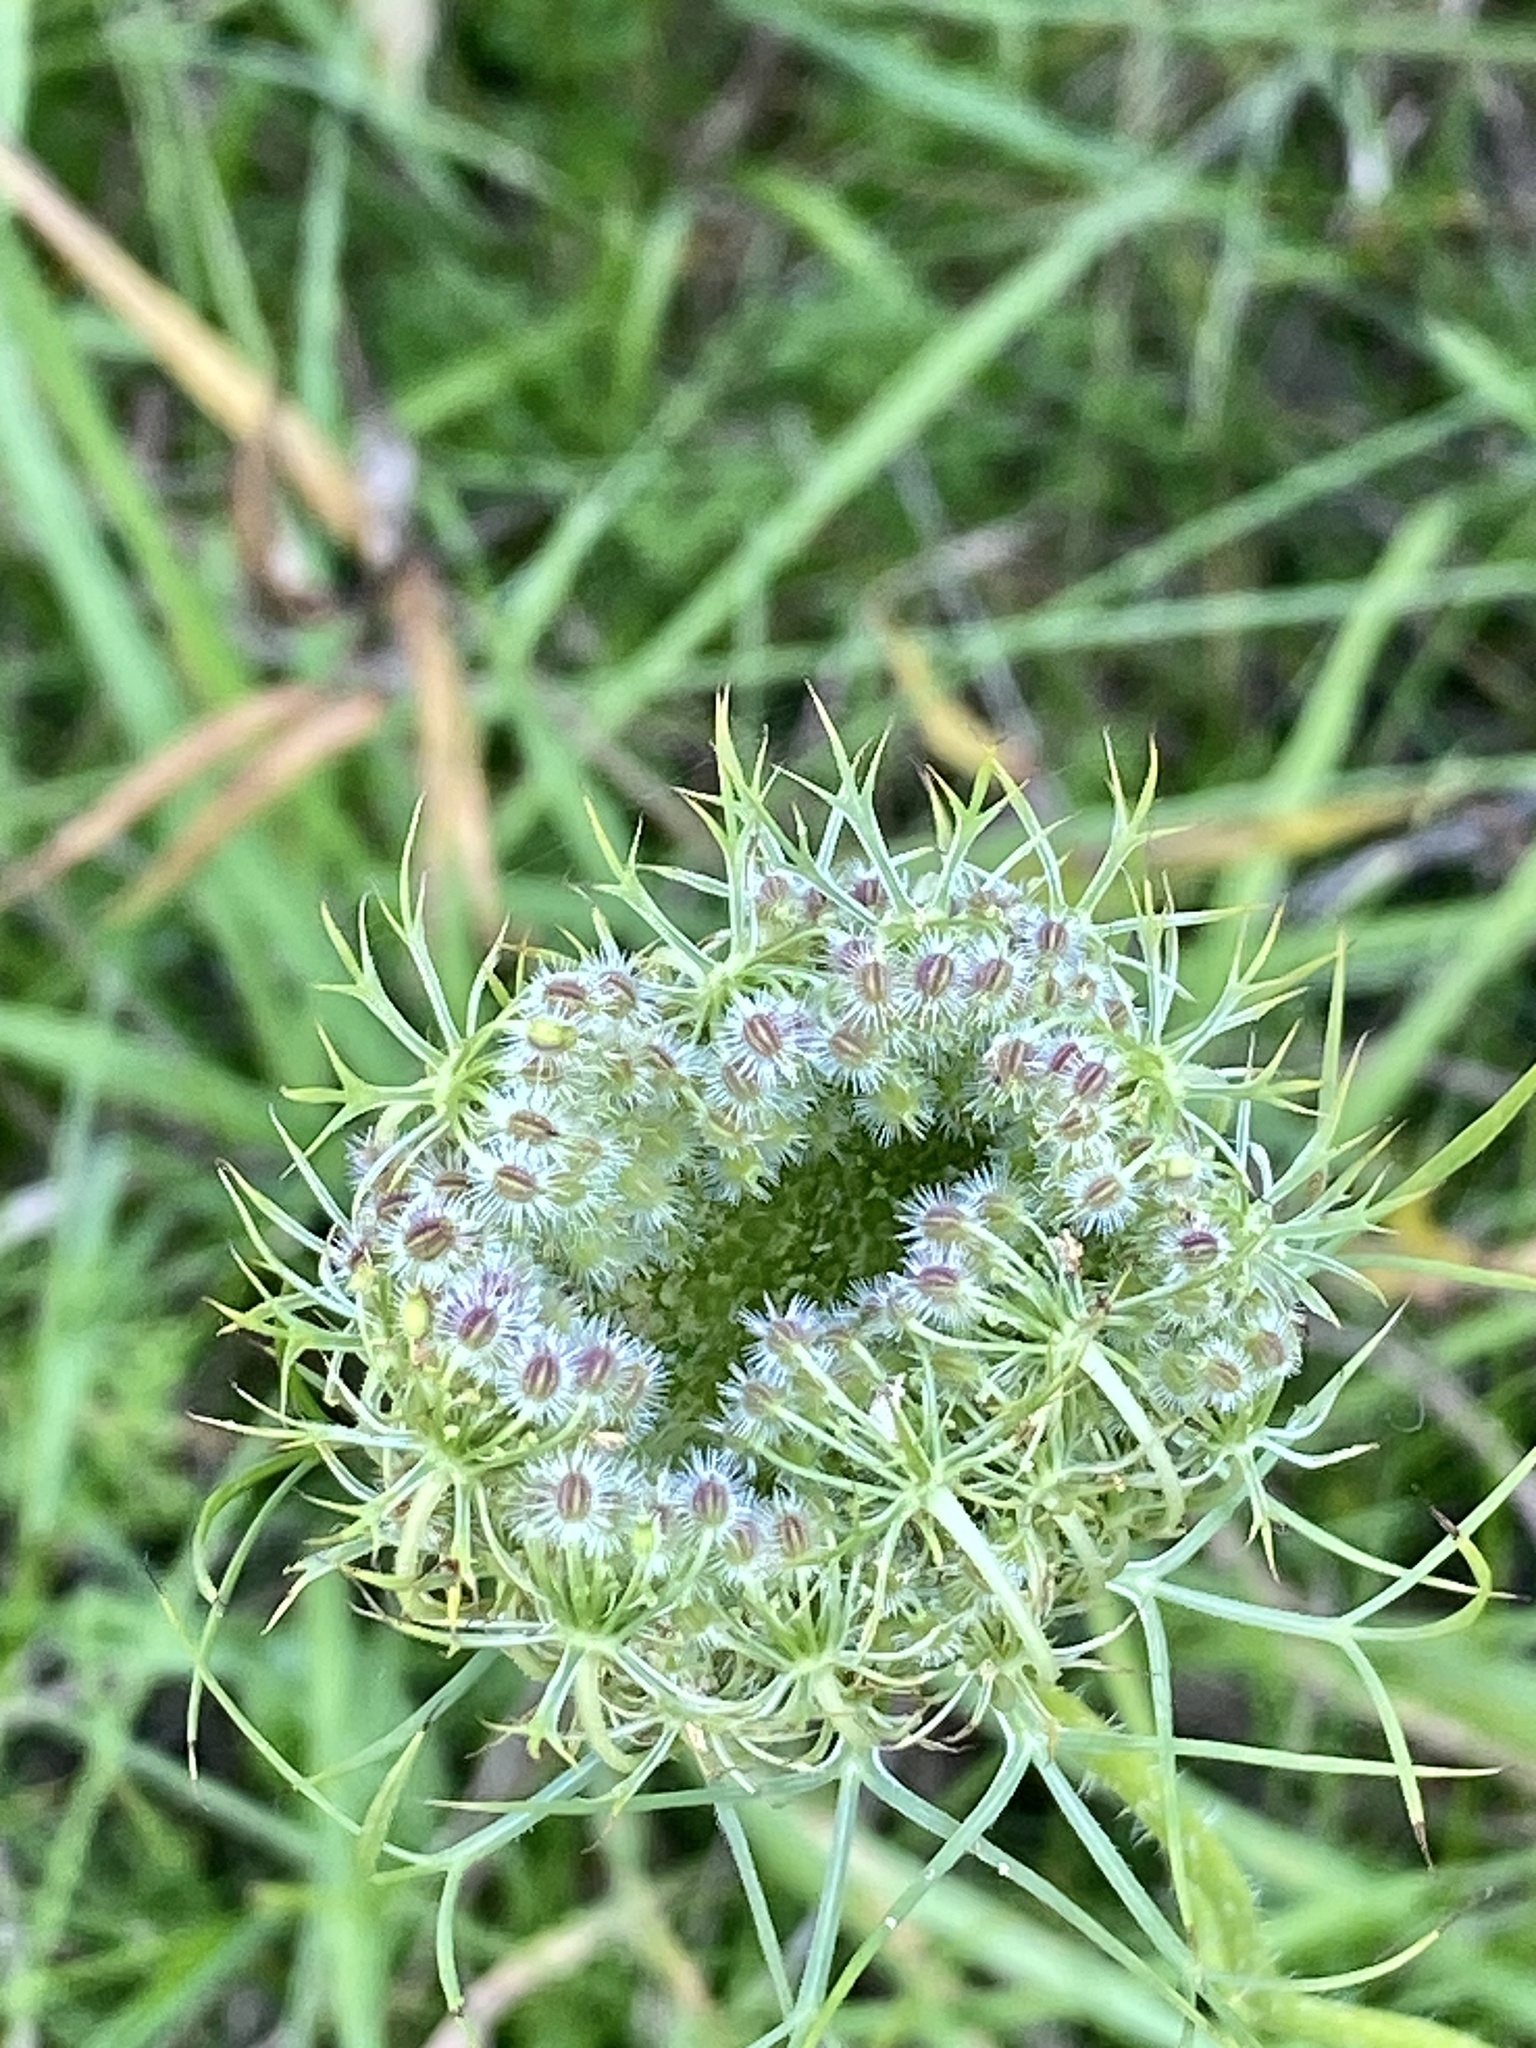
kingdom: Plantae
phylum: Tracheophyta
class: Magnoliopsida
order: Apiales
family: Apiaceae
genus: Daucus
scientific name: Daucus carota
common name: Wild carrot
